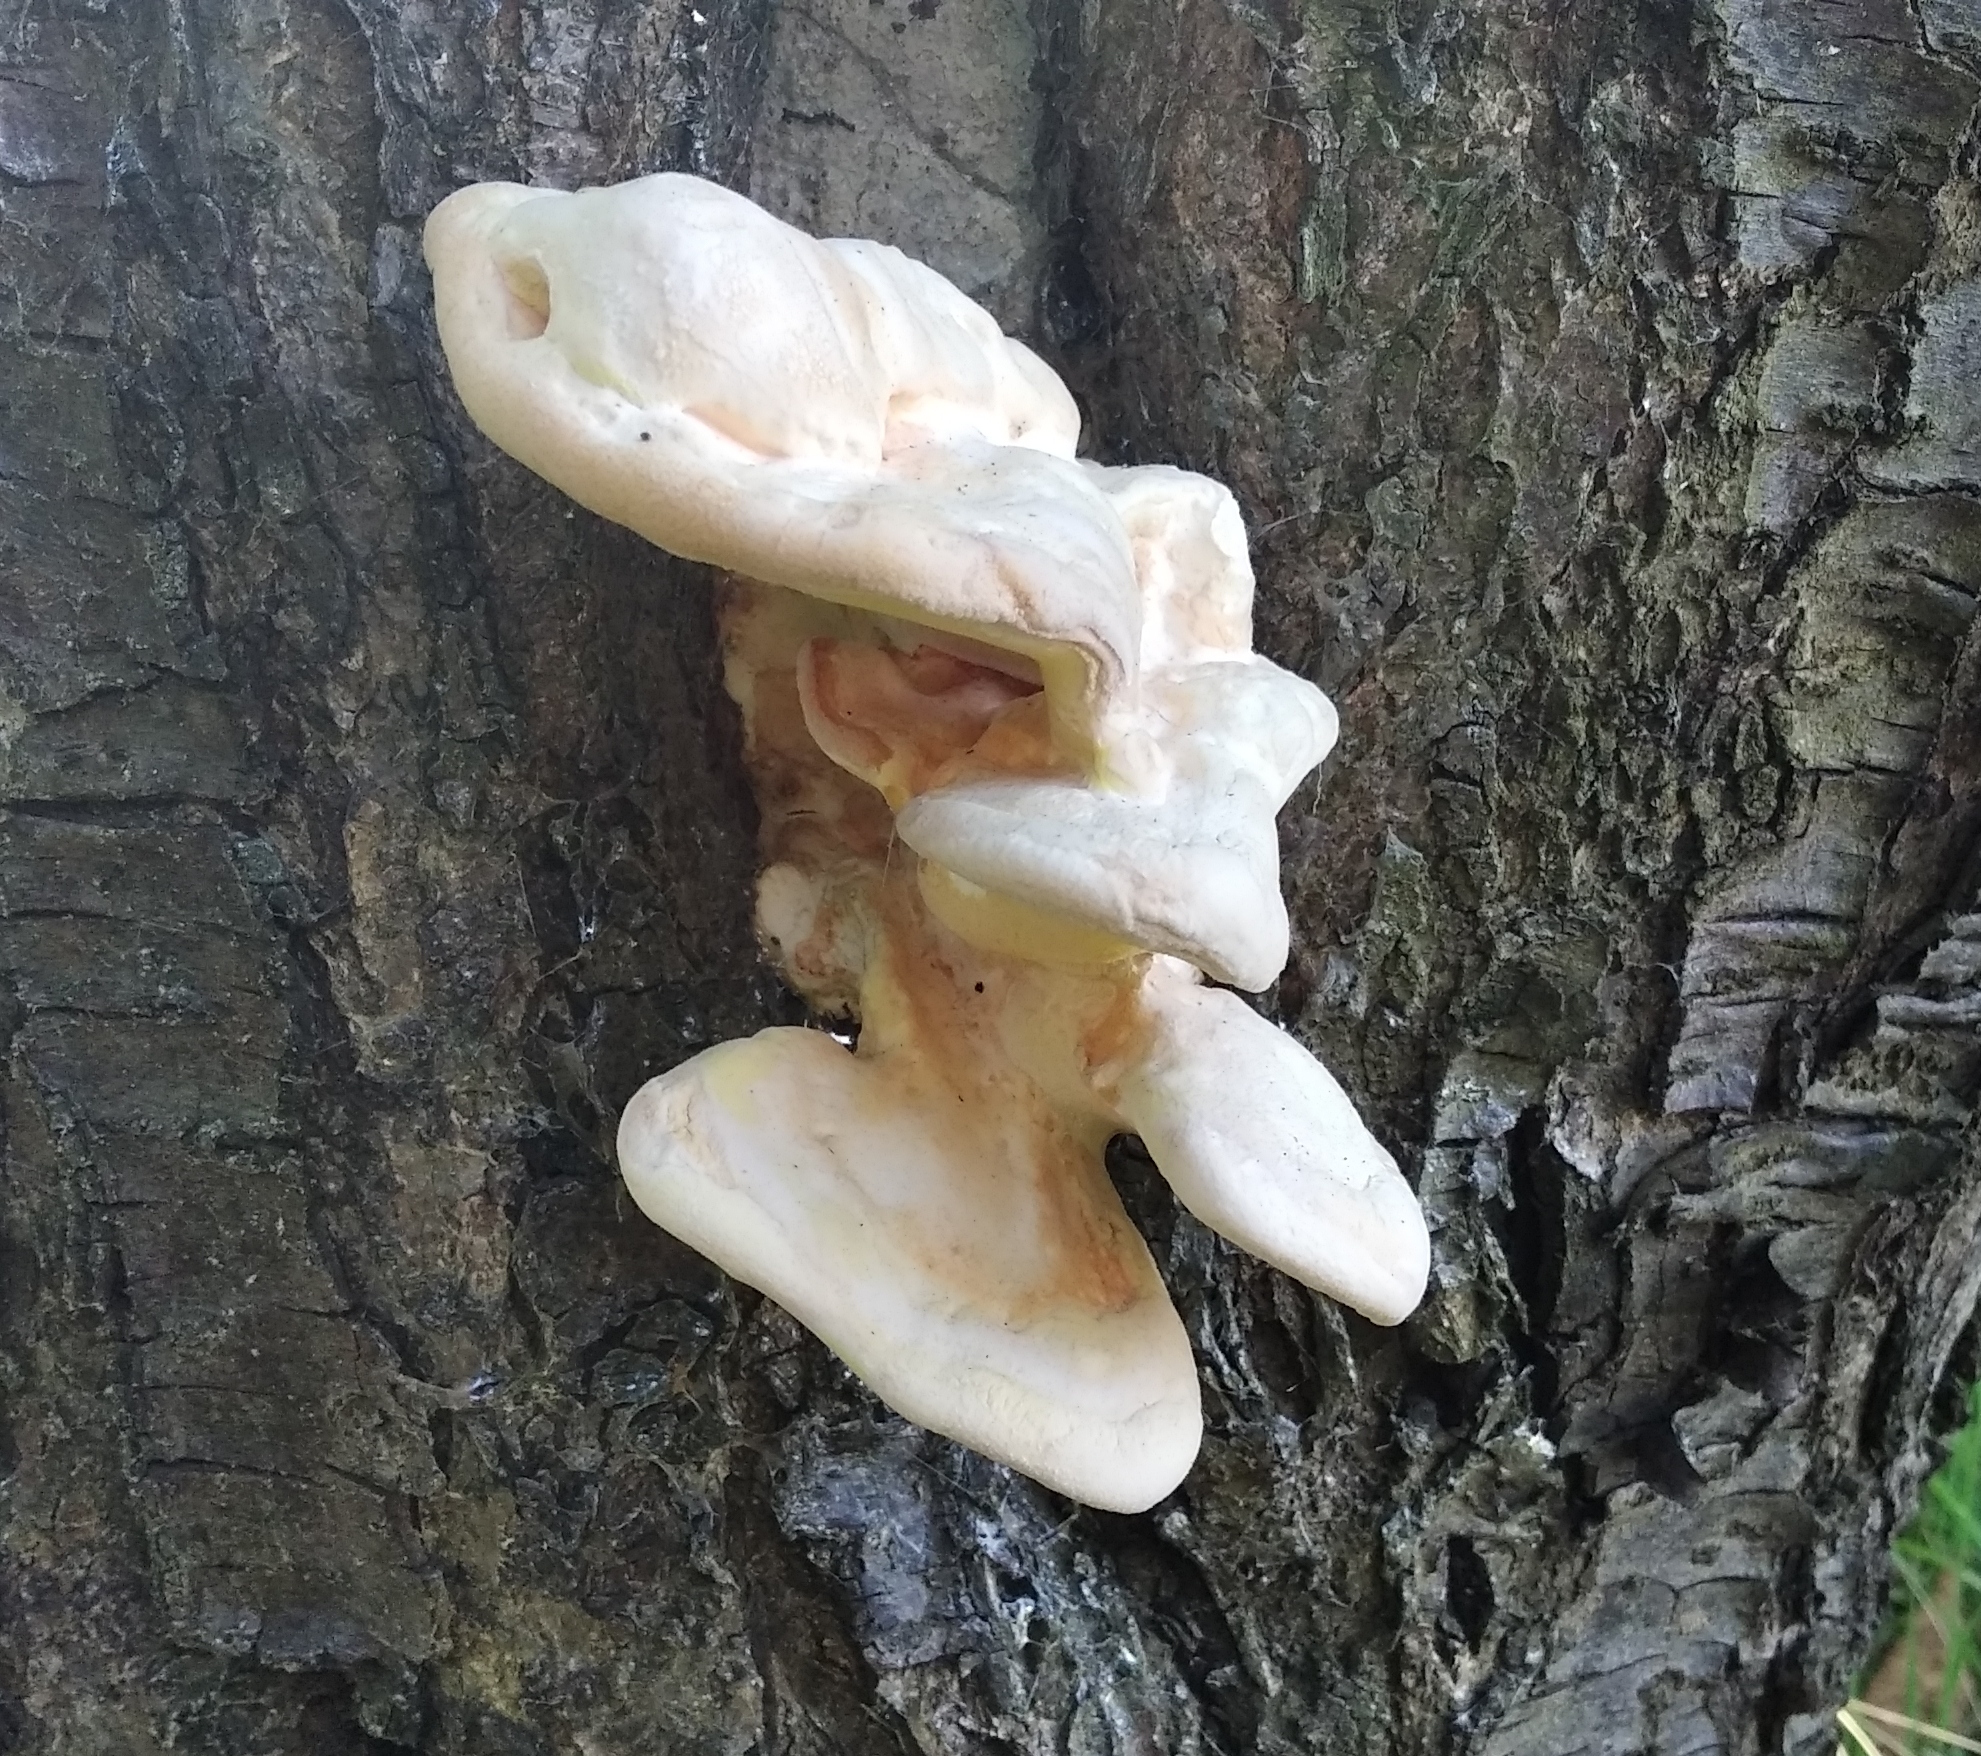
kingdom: Fungi
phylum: Basidiomycota
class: Agaricomycetes
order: Polyporales
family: Laetiporaceae
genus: Laetiporus
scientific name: Laetiporus sulphureus
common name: Chicken of the woods
